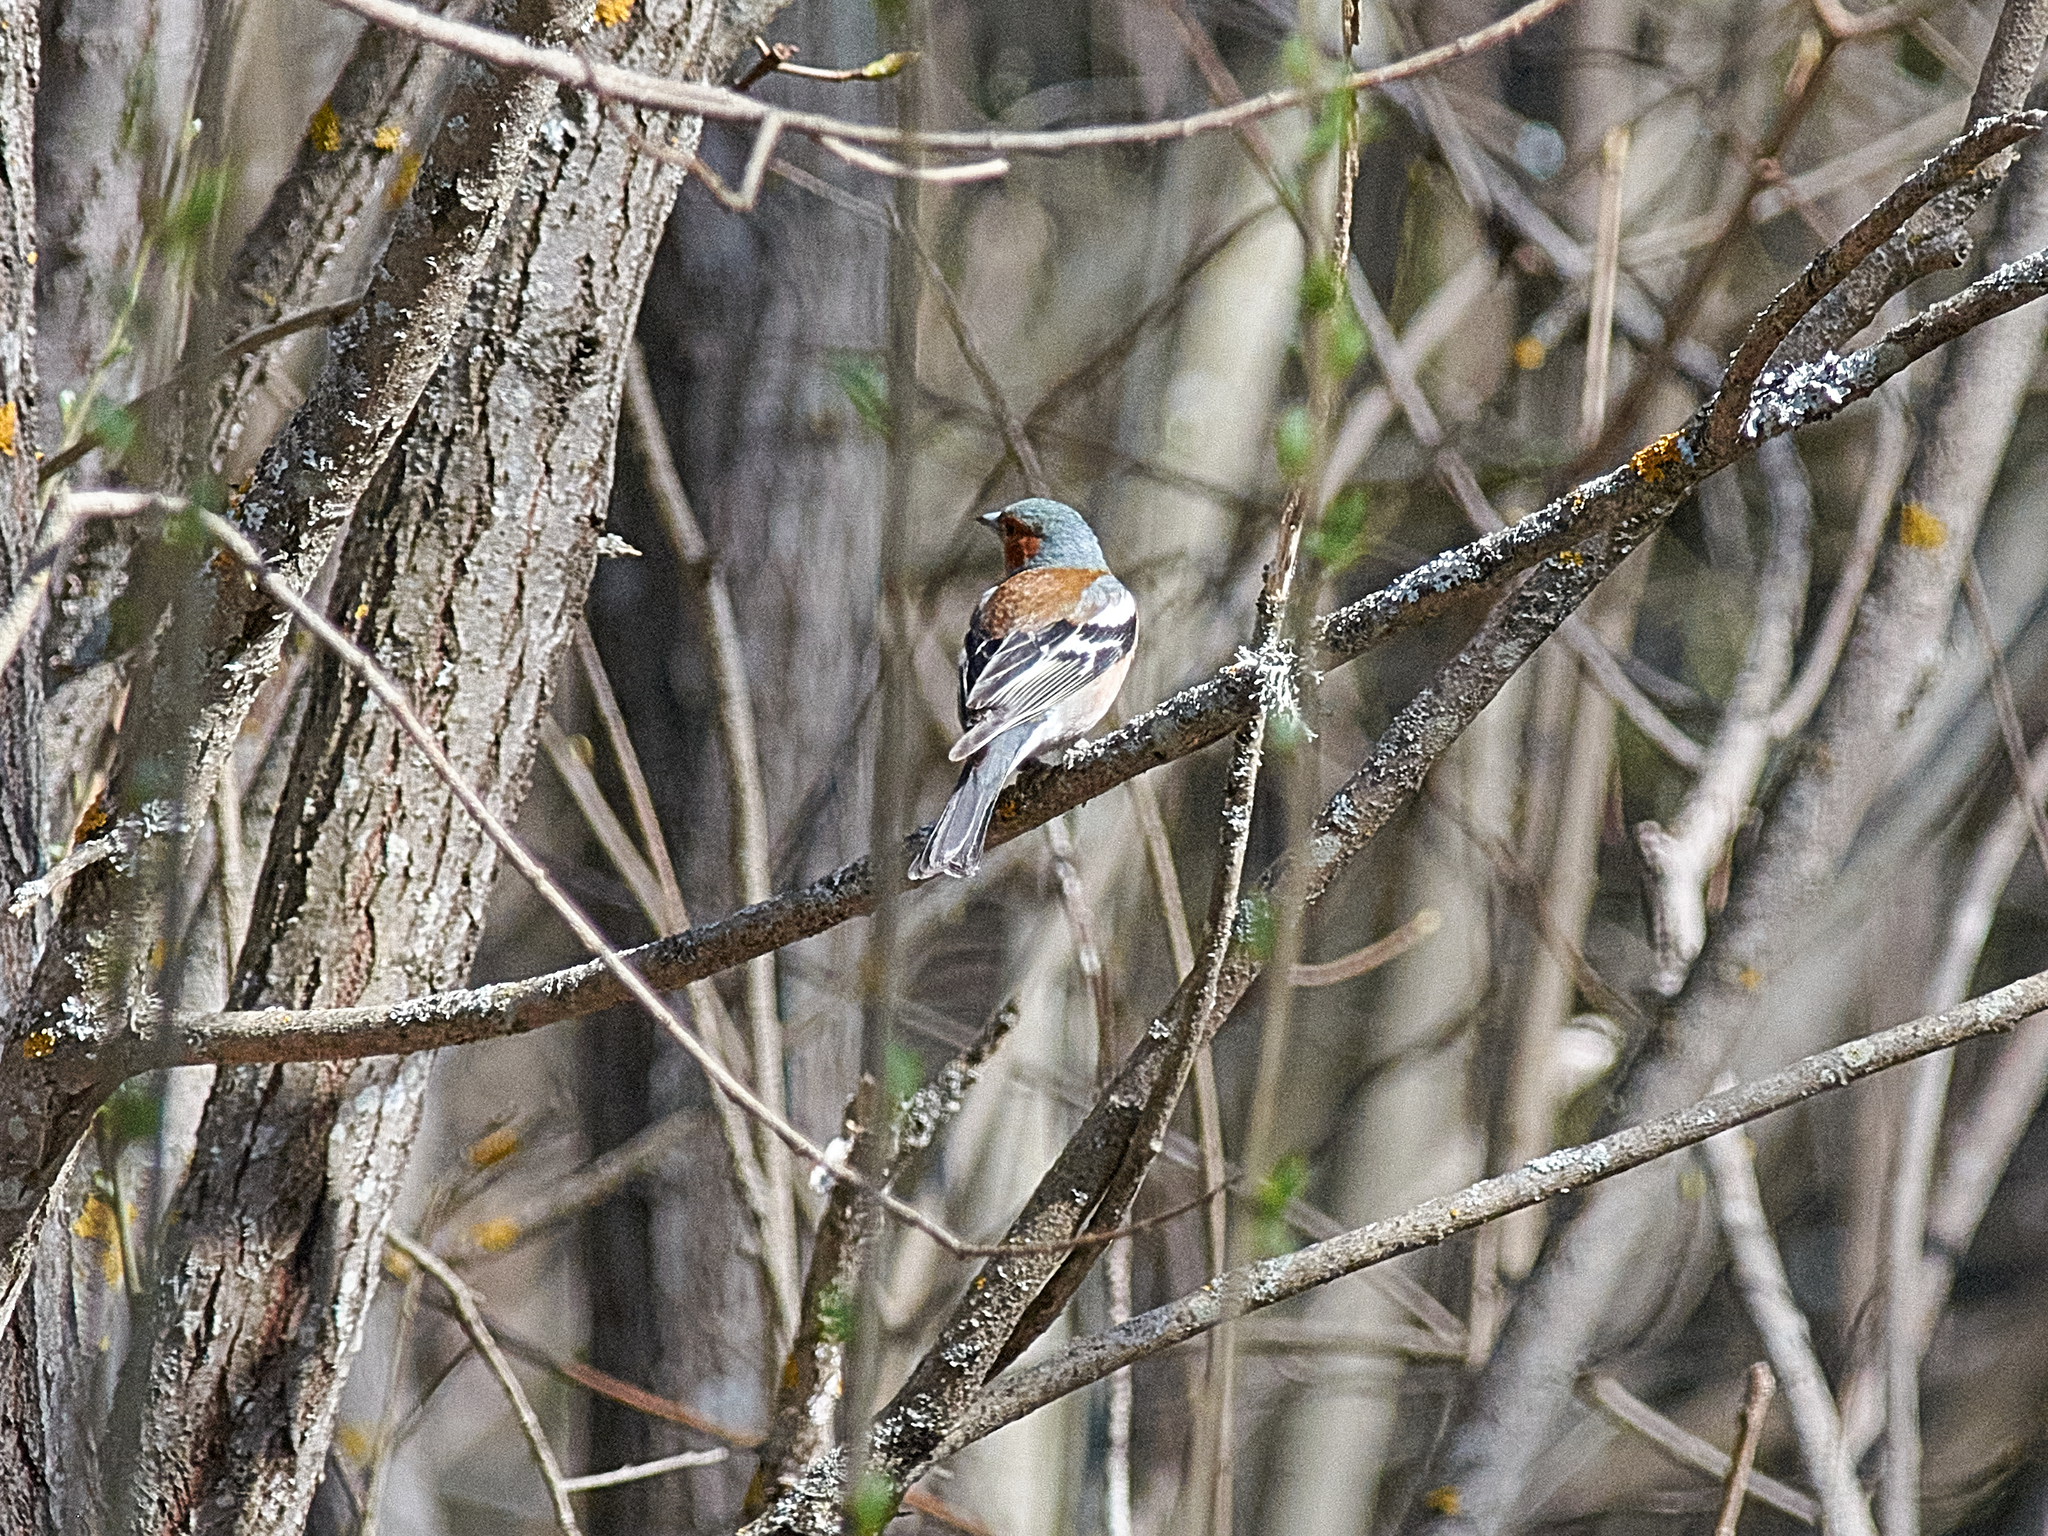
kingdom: Animalia
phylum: Chordata
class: Aves
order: Passeriformes
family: Fringillidae
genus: Fringilla
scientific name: Fringilla coelebs
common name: Common chaffinch
